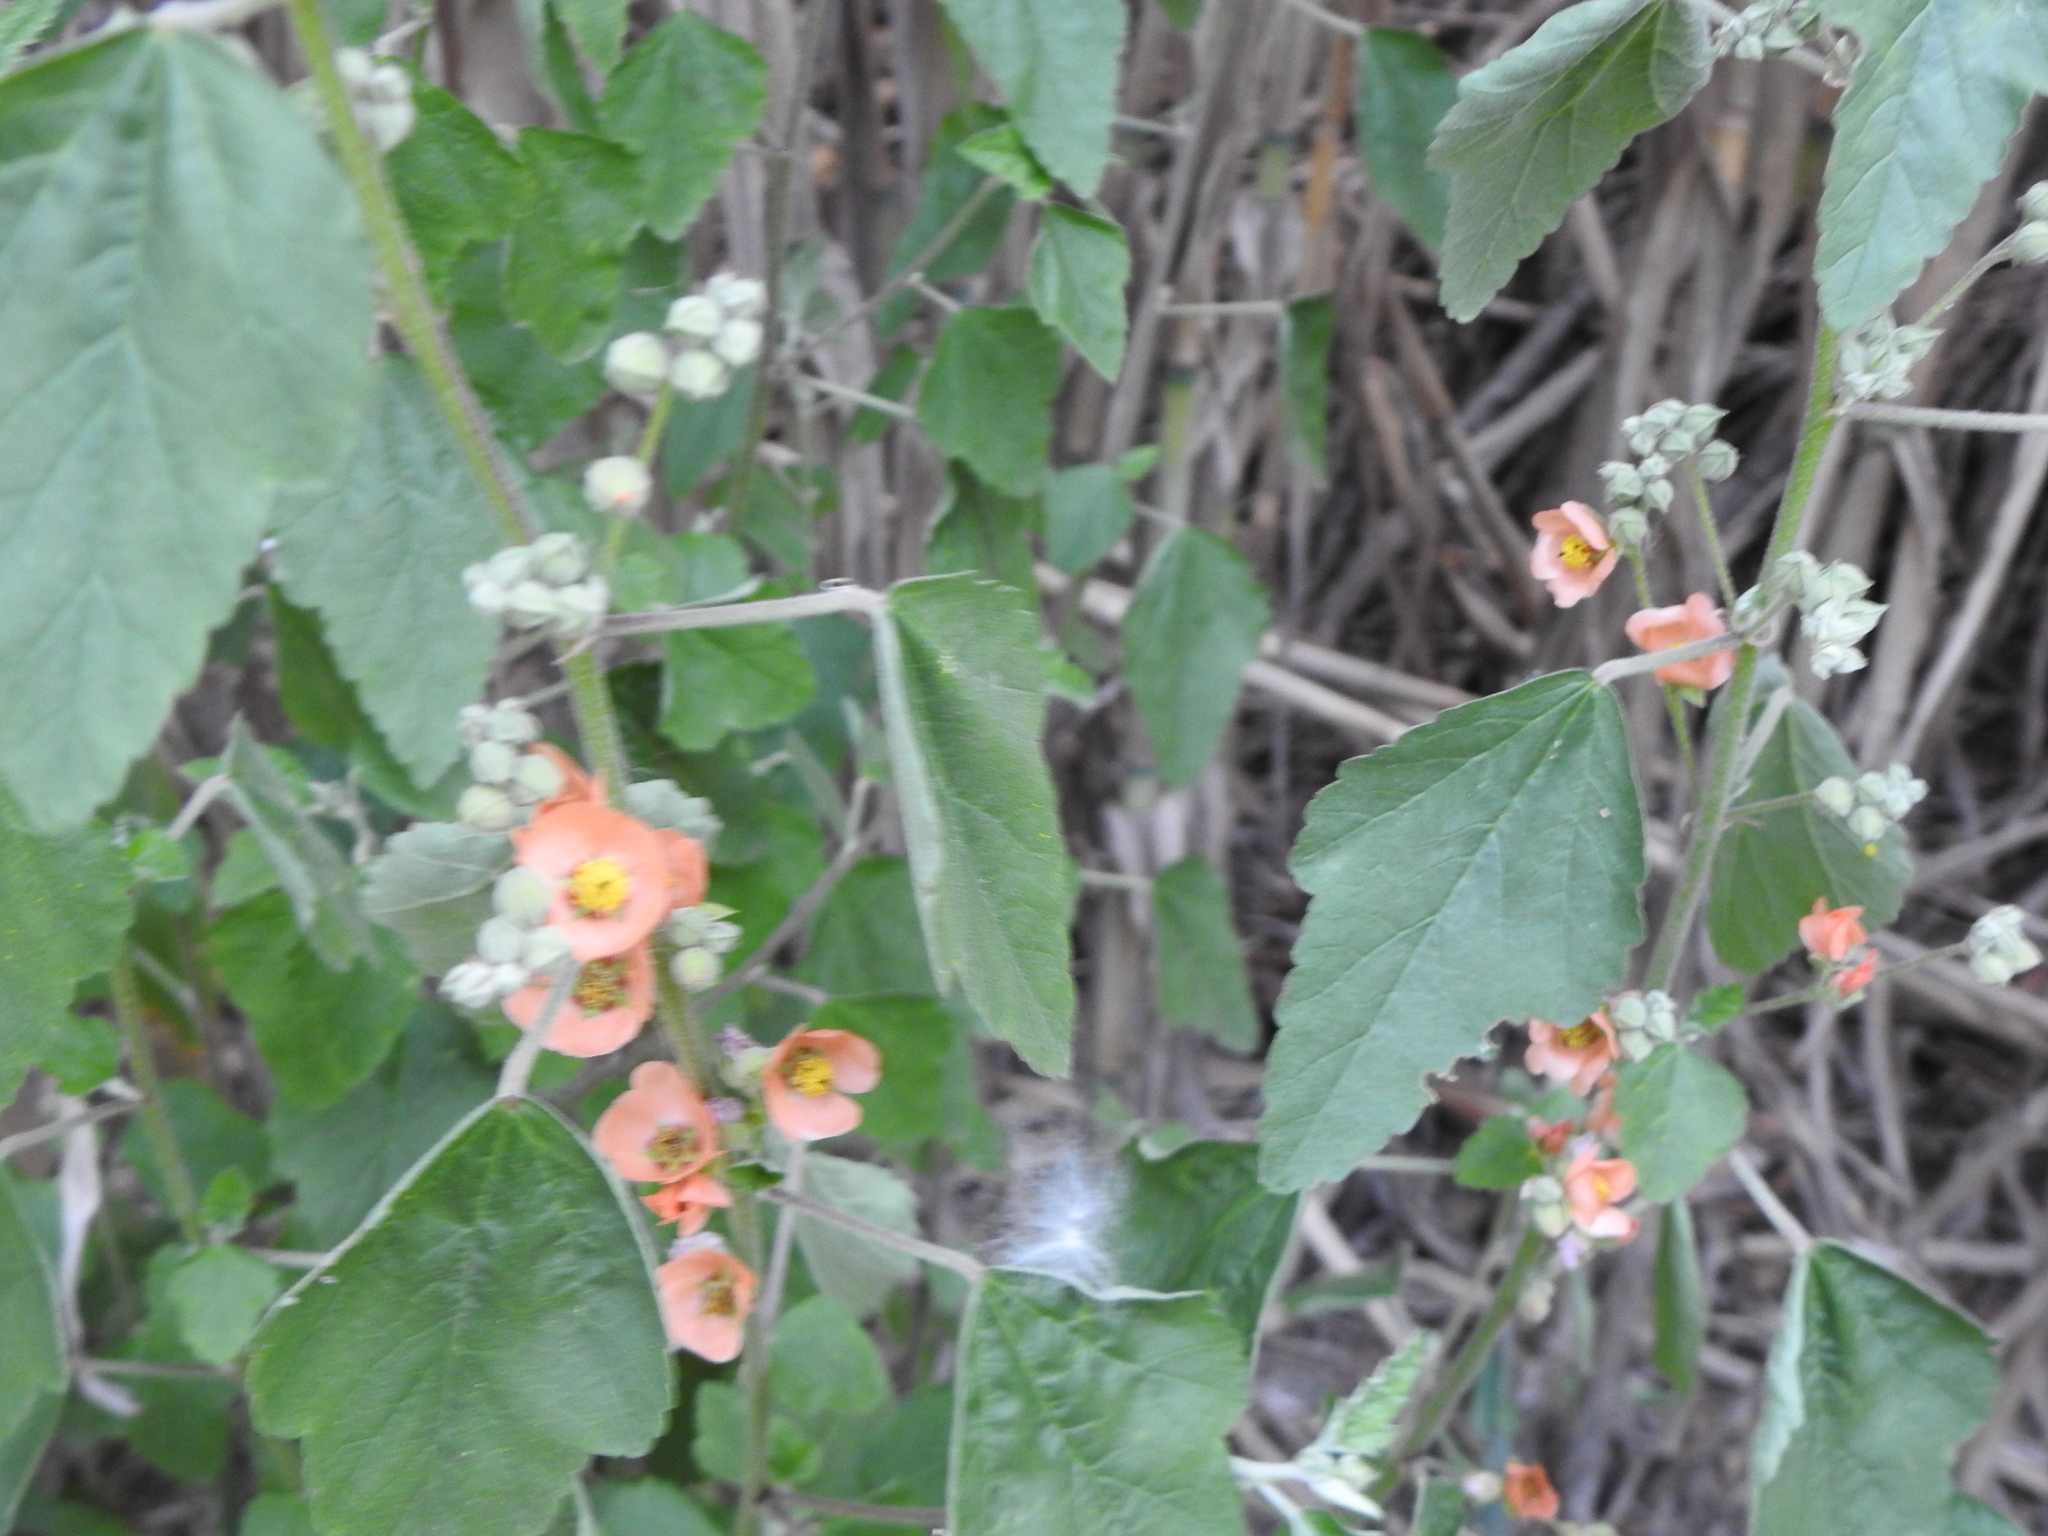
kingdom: Plantae
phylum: Tracheophyta
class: Magnoliopsida
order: Malvales
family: Malvaceae
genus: Sphaeralcea
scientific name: Sphaeralcea bonariensis
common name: Latin globemallow
